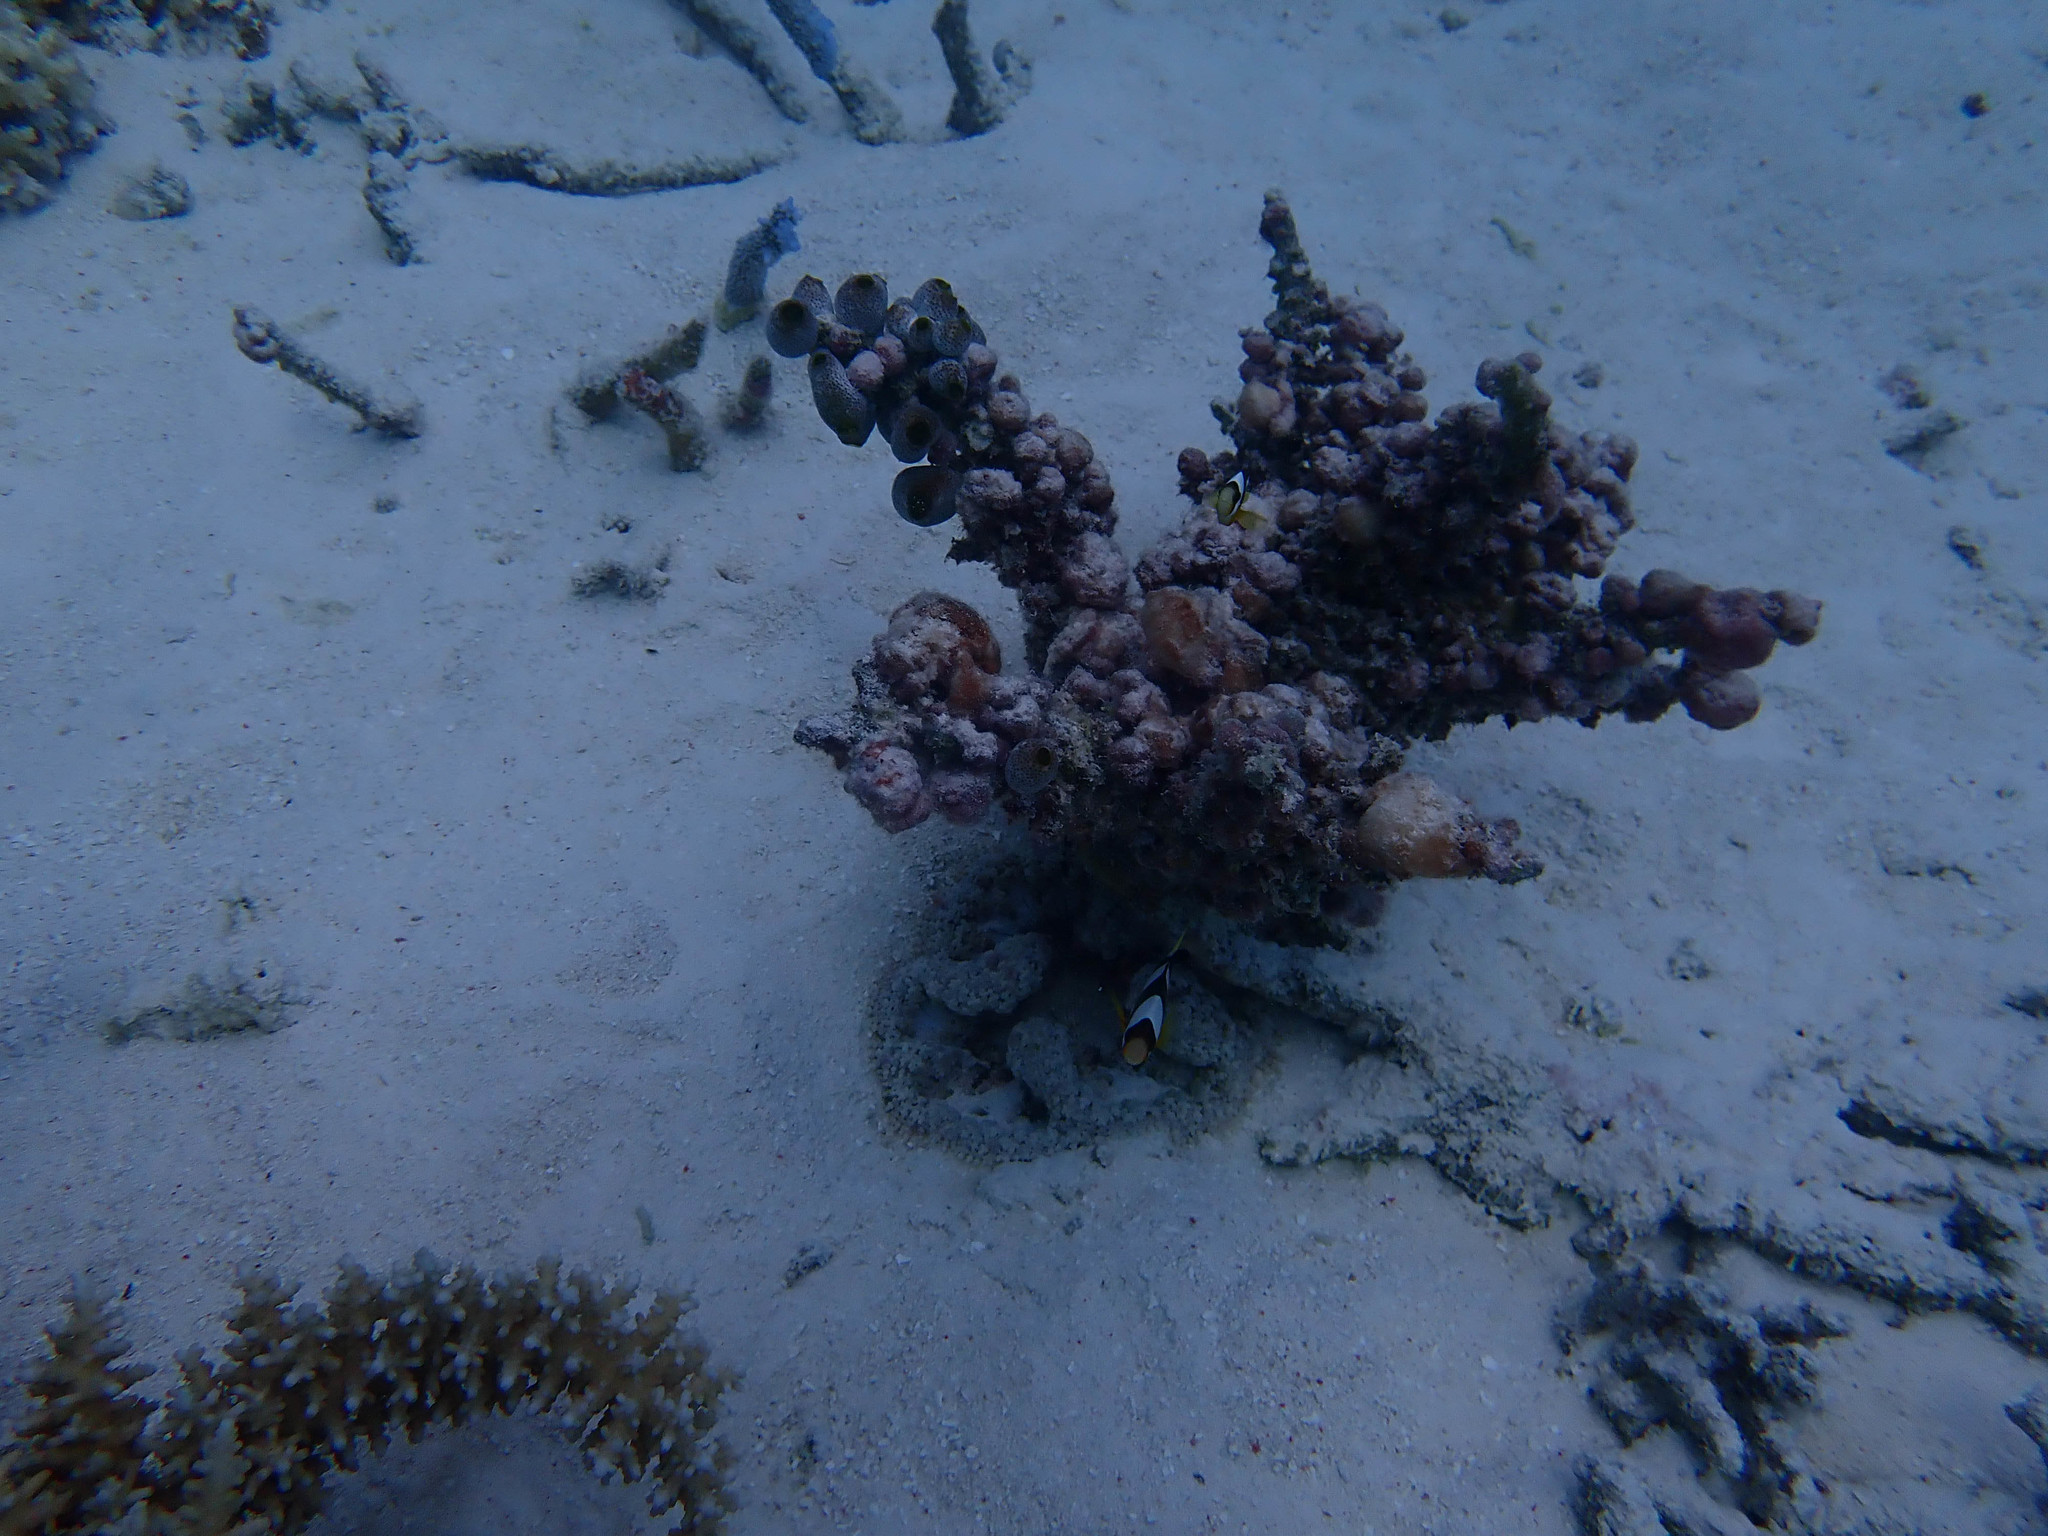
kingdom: Animalia
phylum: Chordata
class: Ascidiacea
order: Aplousobranchia
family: Didemnidae
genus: Didemnum
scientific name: Didemnum molle
